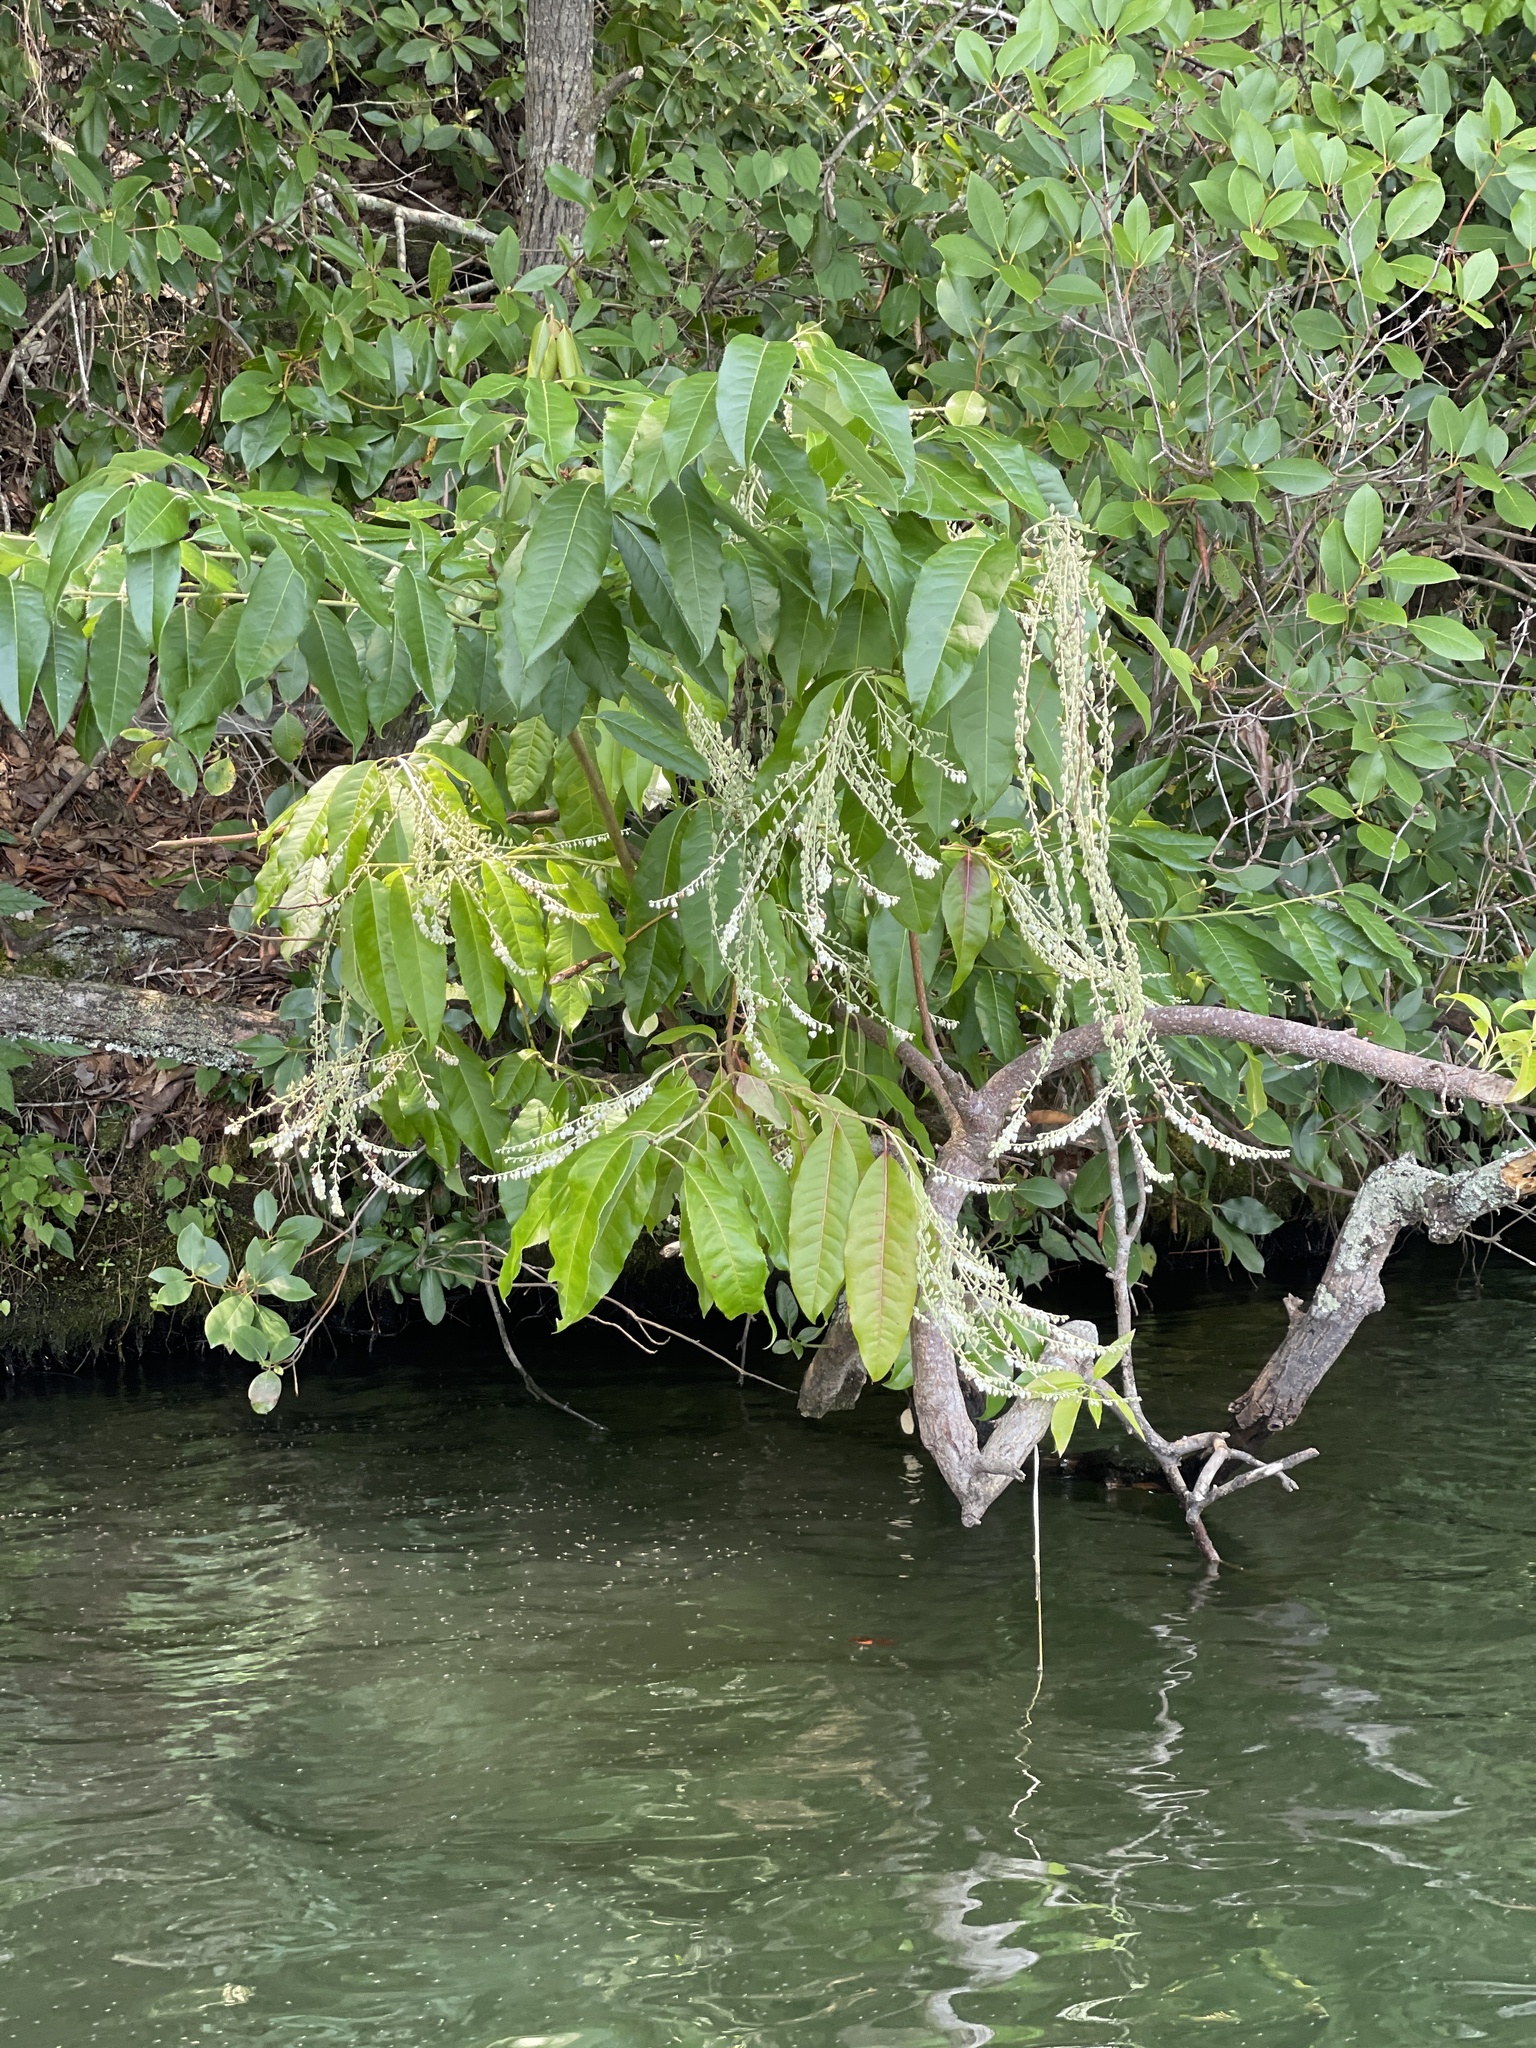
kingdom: Plantae
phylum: Tracheophyta
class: Magnoliopsida
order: Ericales
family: Ericaceae
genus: Oxydendrum
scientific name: Oxydendrum arboreum
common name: Sourwood
